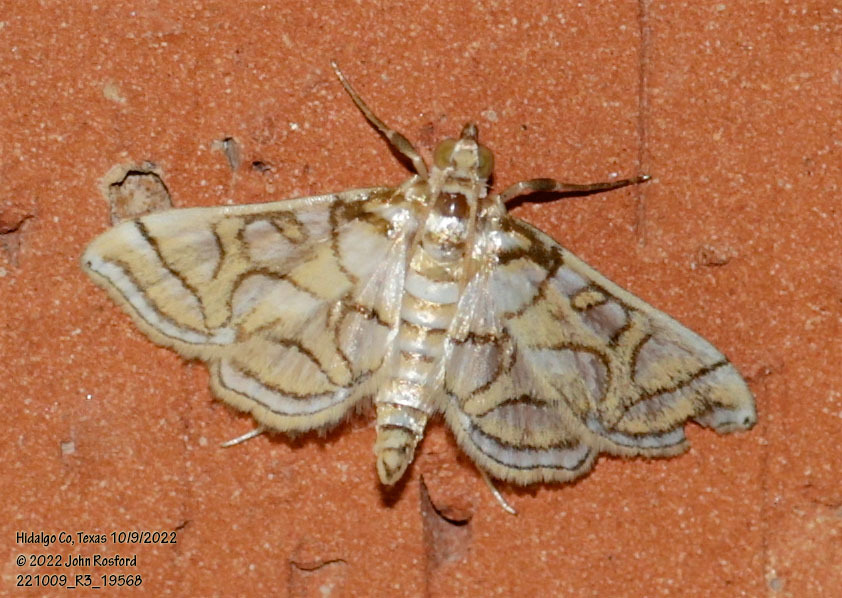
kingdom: Animalia
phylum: Arthropoda
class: Insecta
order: Lepidoptera
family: Crambidae
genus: Pseudopyrausta
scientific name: Pseudopyrausta santatalis
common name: Moth
